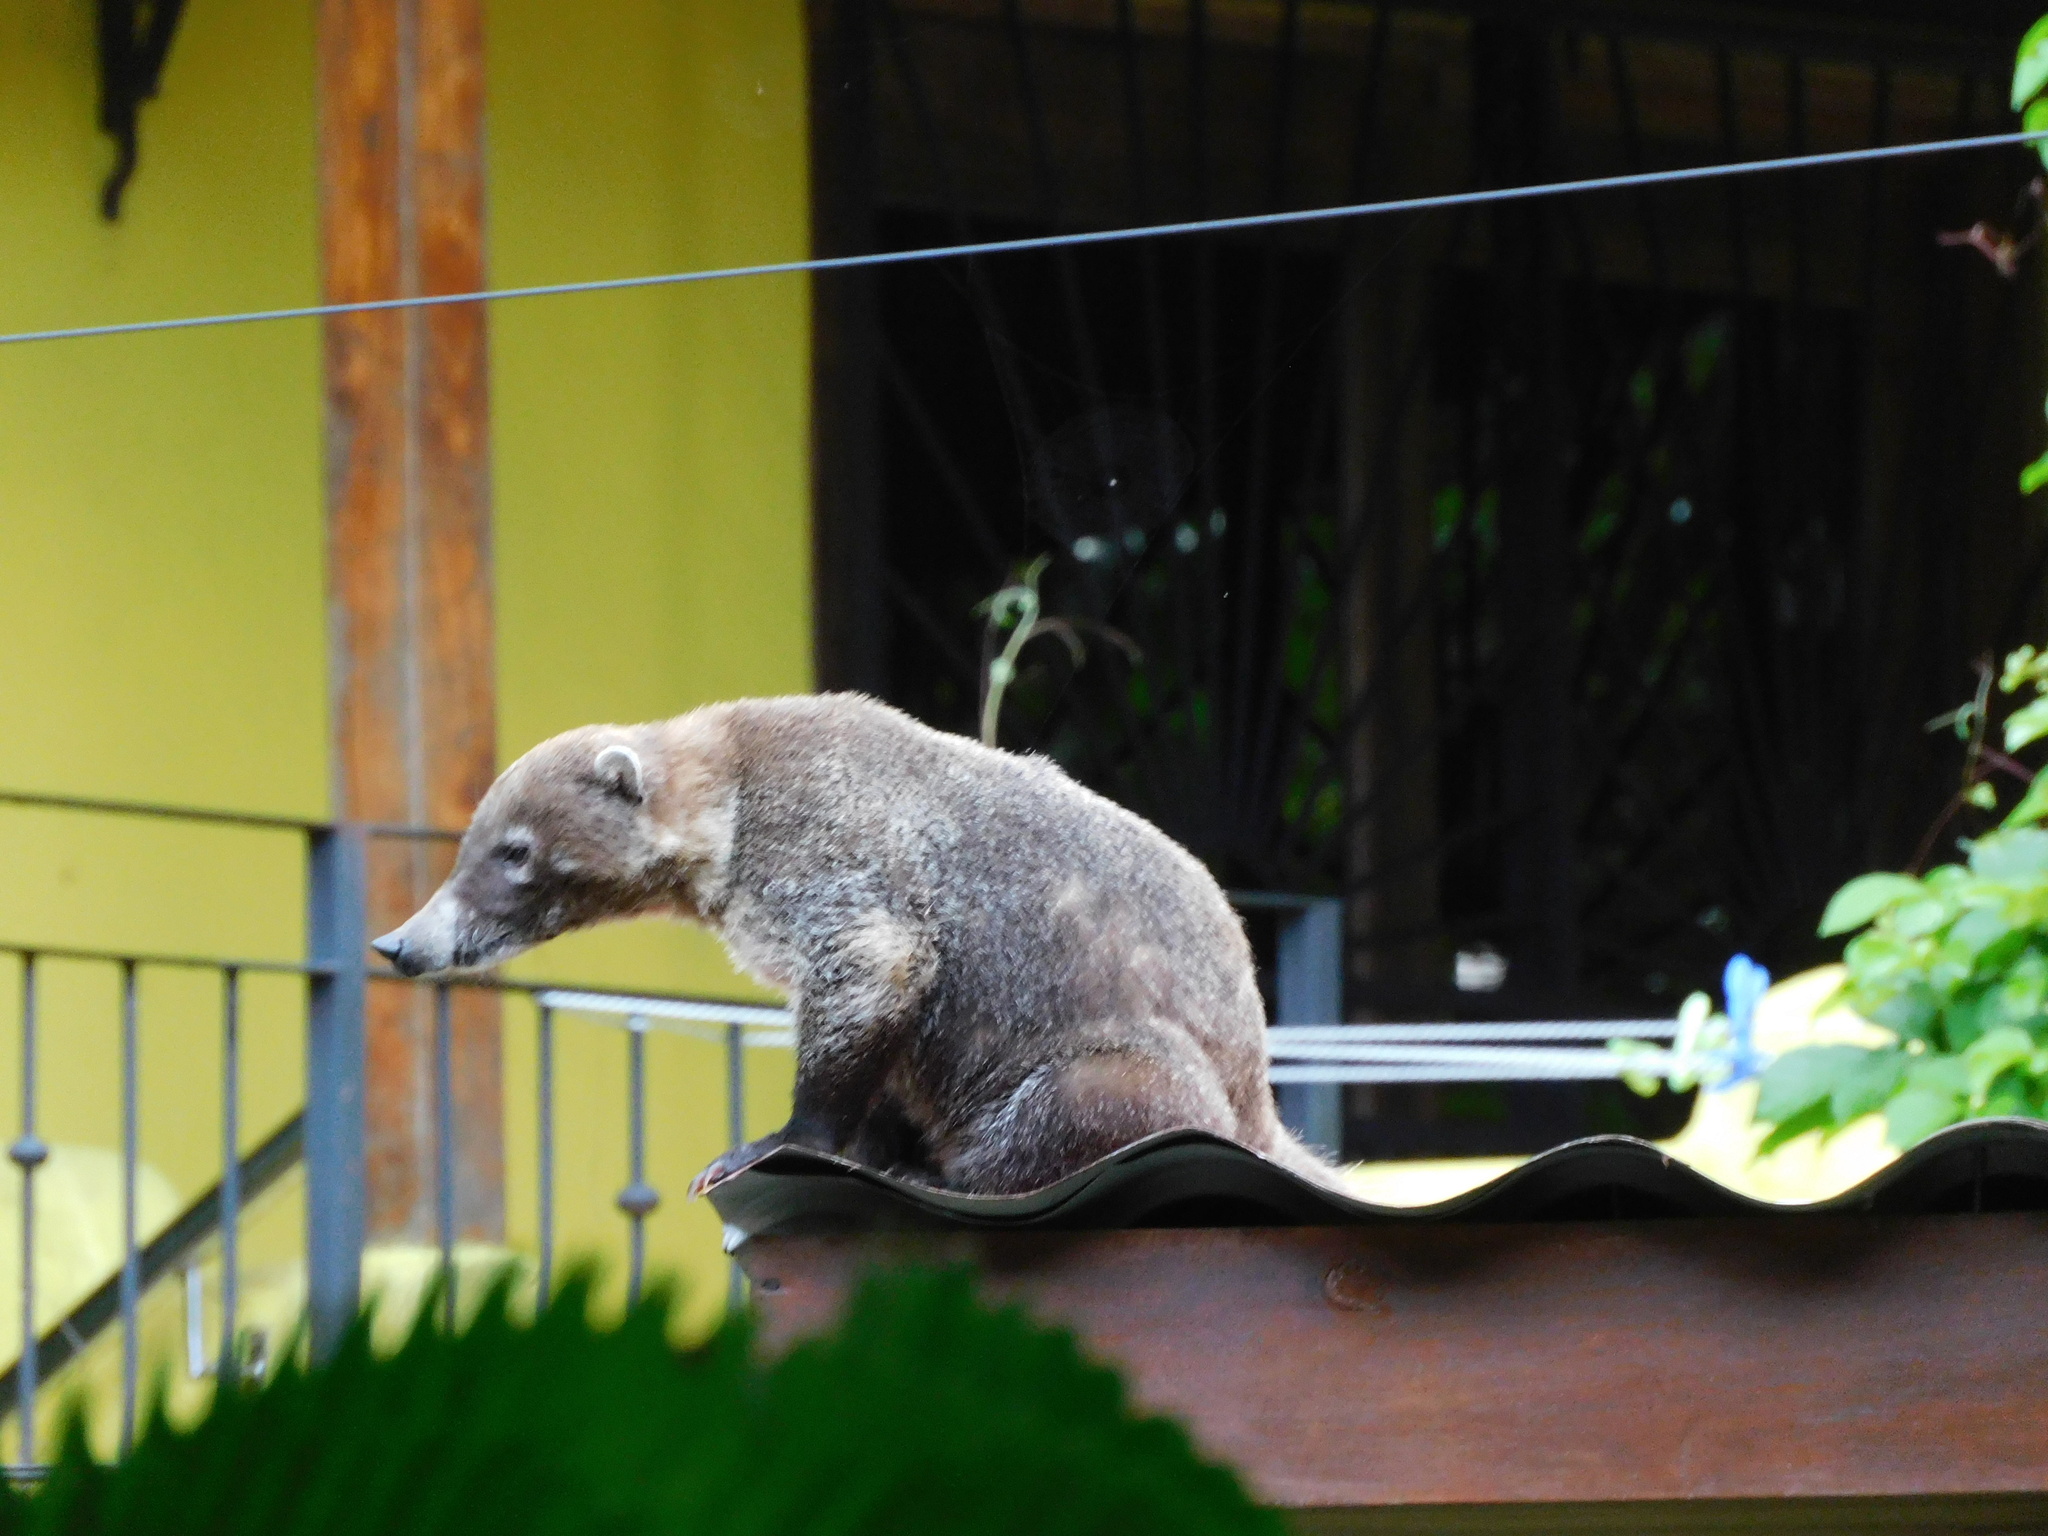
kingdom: Animalia
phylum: Chordata
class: Mammalia
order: Carnivora
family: Procyonidae
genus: Nasua
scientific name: Nasua narica
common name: White-nosed coati
